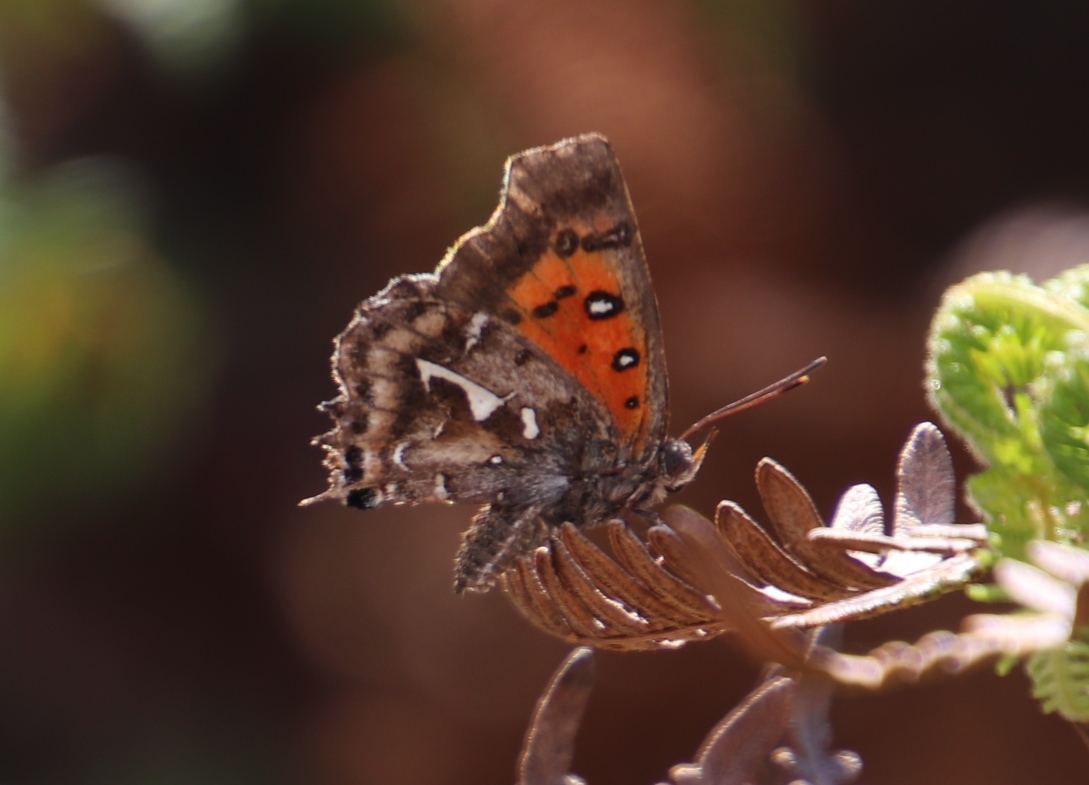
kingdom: Animalia
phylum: Arthropoda
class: Insecta
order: Lepidoptera
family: Lycaenidae
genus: Phasis
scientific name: Phasis thero
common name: Silver arrowhead
